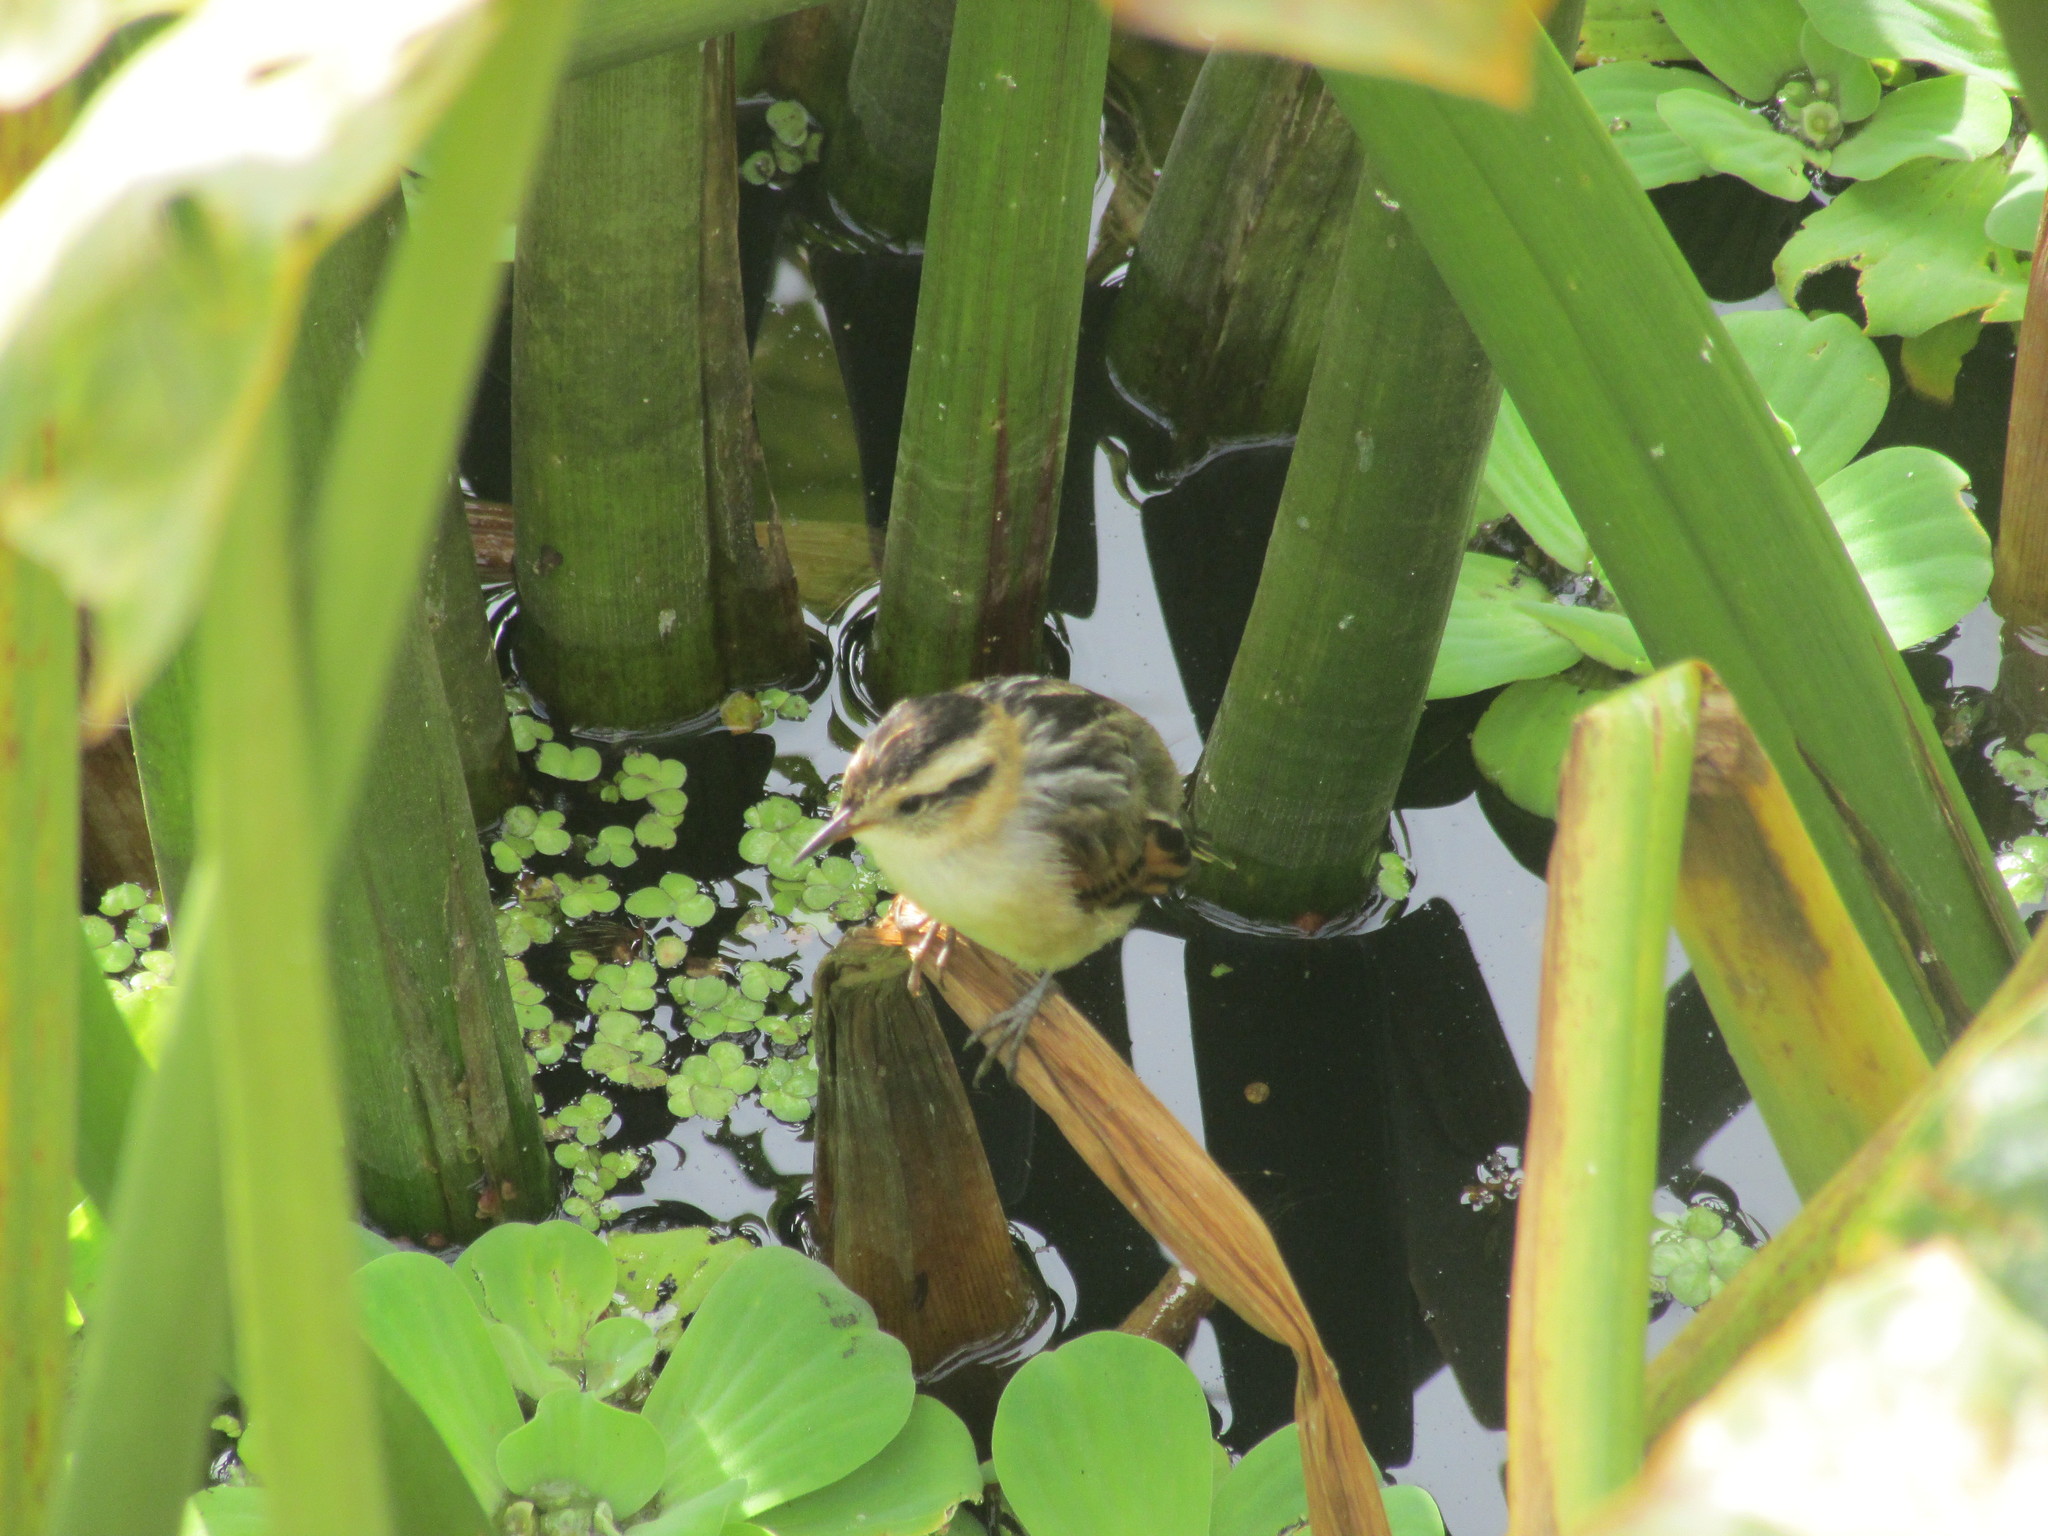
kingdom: Animalia
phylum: Chordata
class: Aves
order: Passeriformes
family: Furnariidae
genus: Phleocryptes
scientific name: Phleocryptes melanops
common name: Wren-like rushbird
